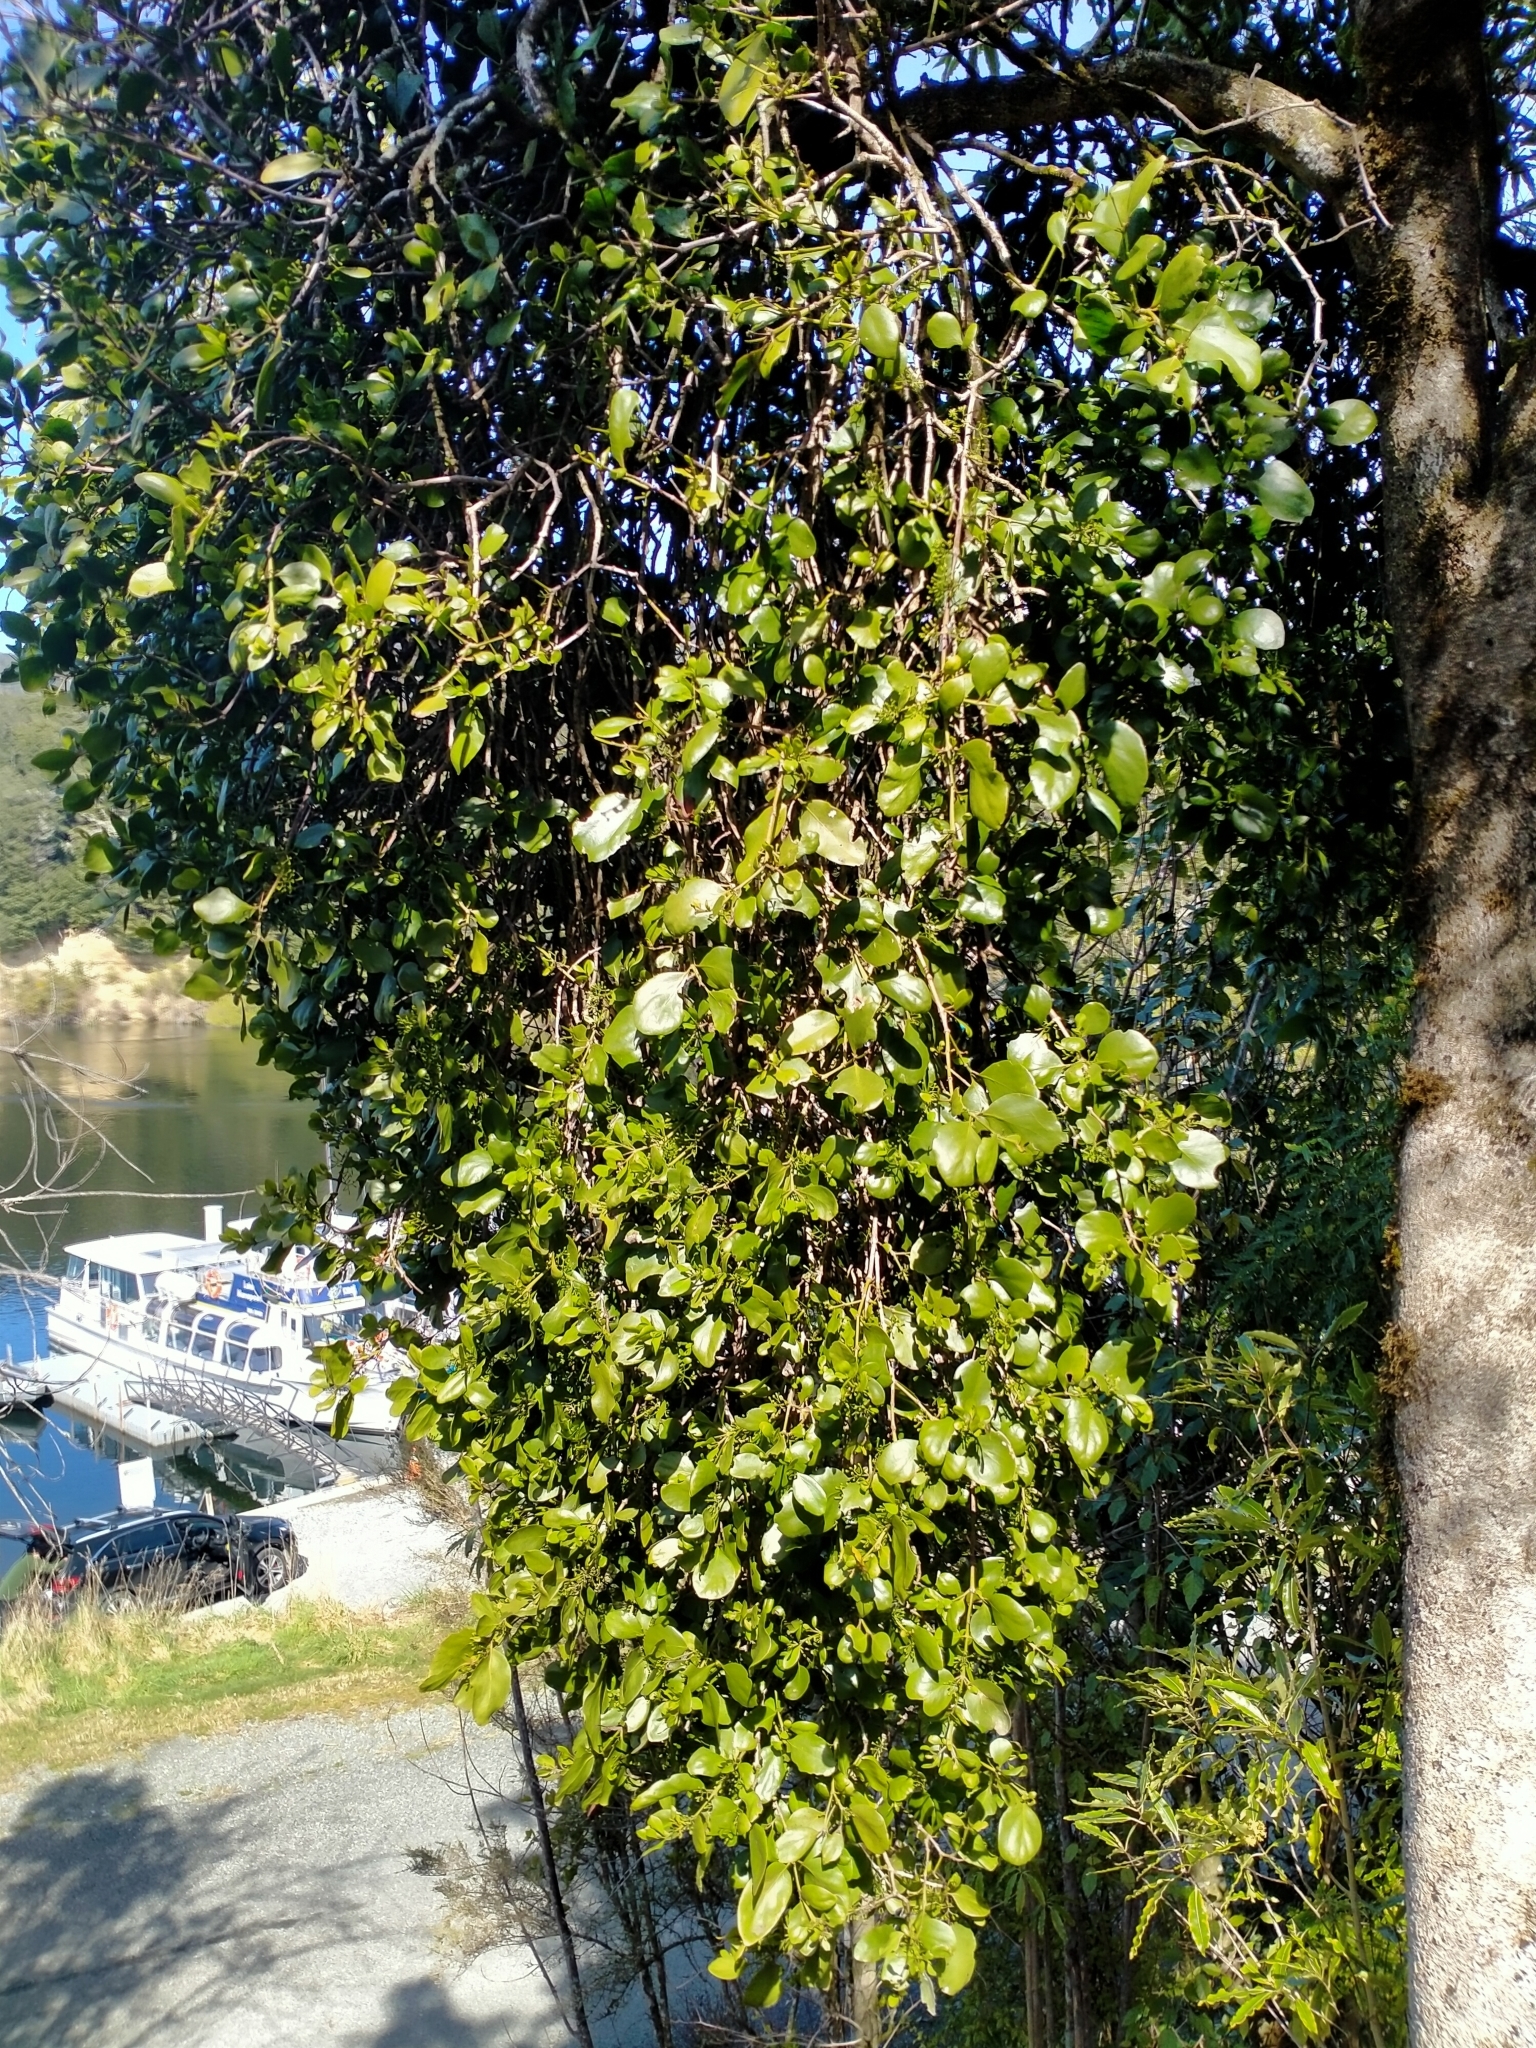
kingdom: Plantae
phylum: Tracheophyta
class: Magnoliopsida
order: Santalales
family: Loranthaceae
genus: Ileostylus
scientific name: Ileostylus micranthus
